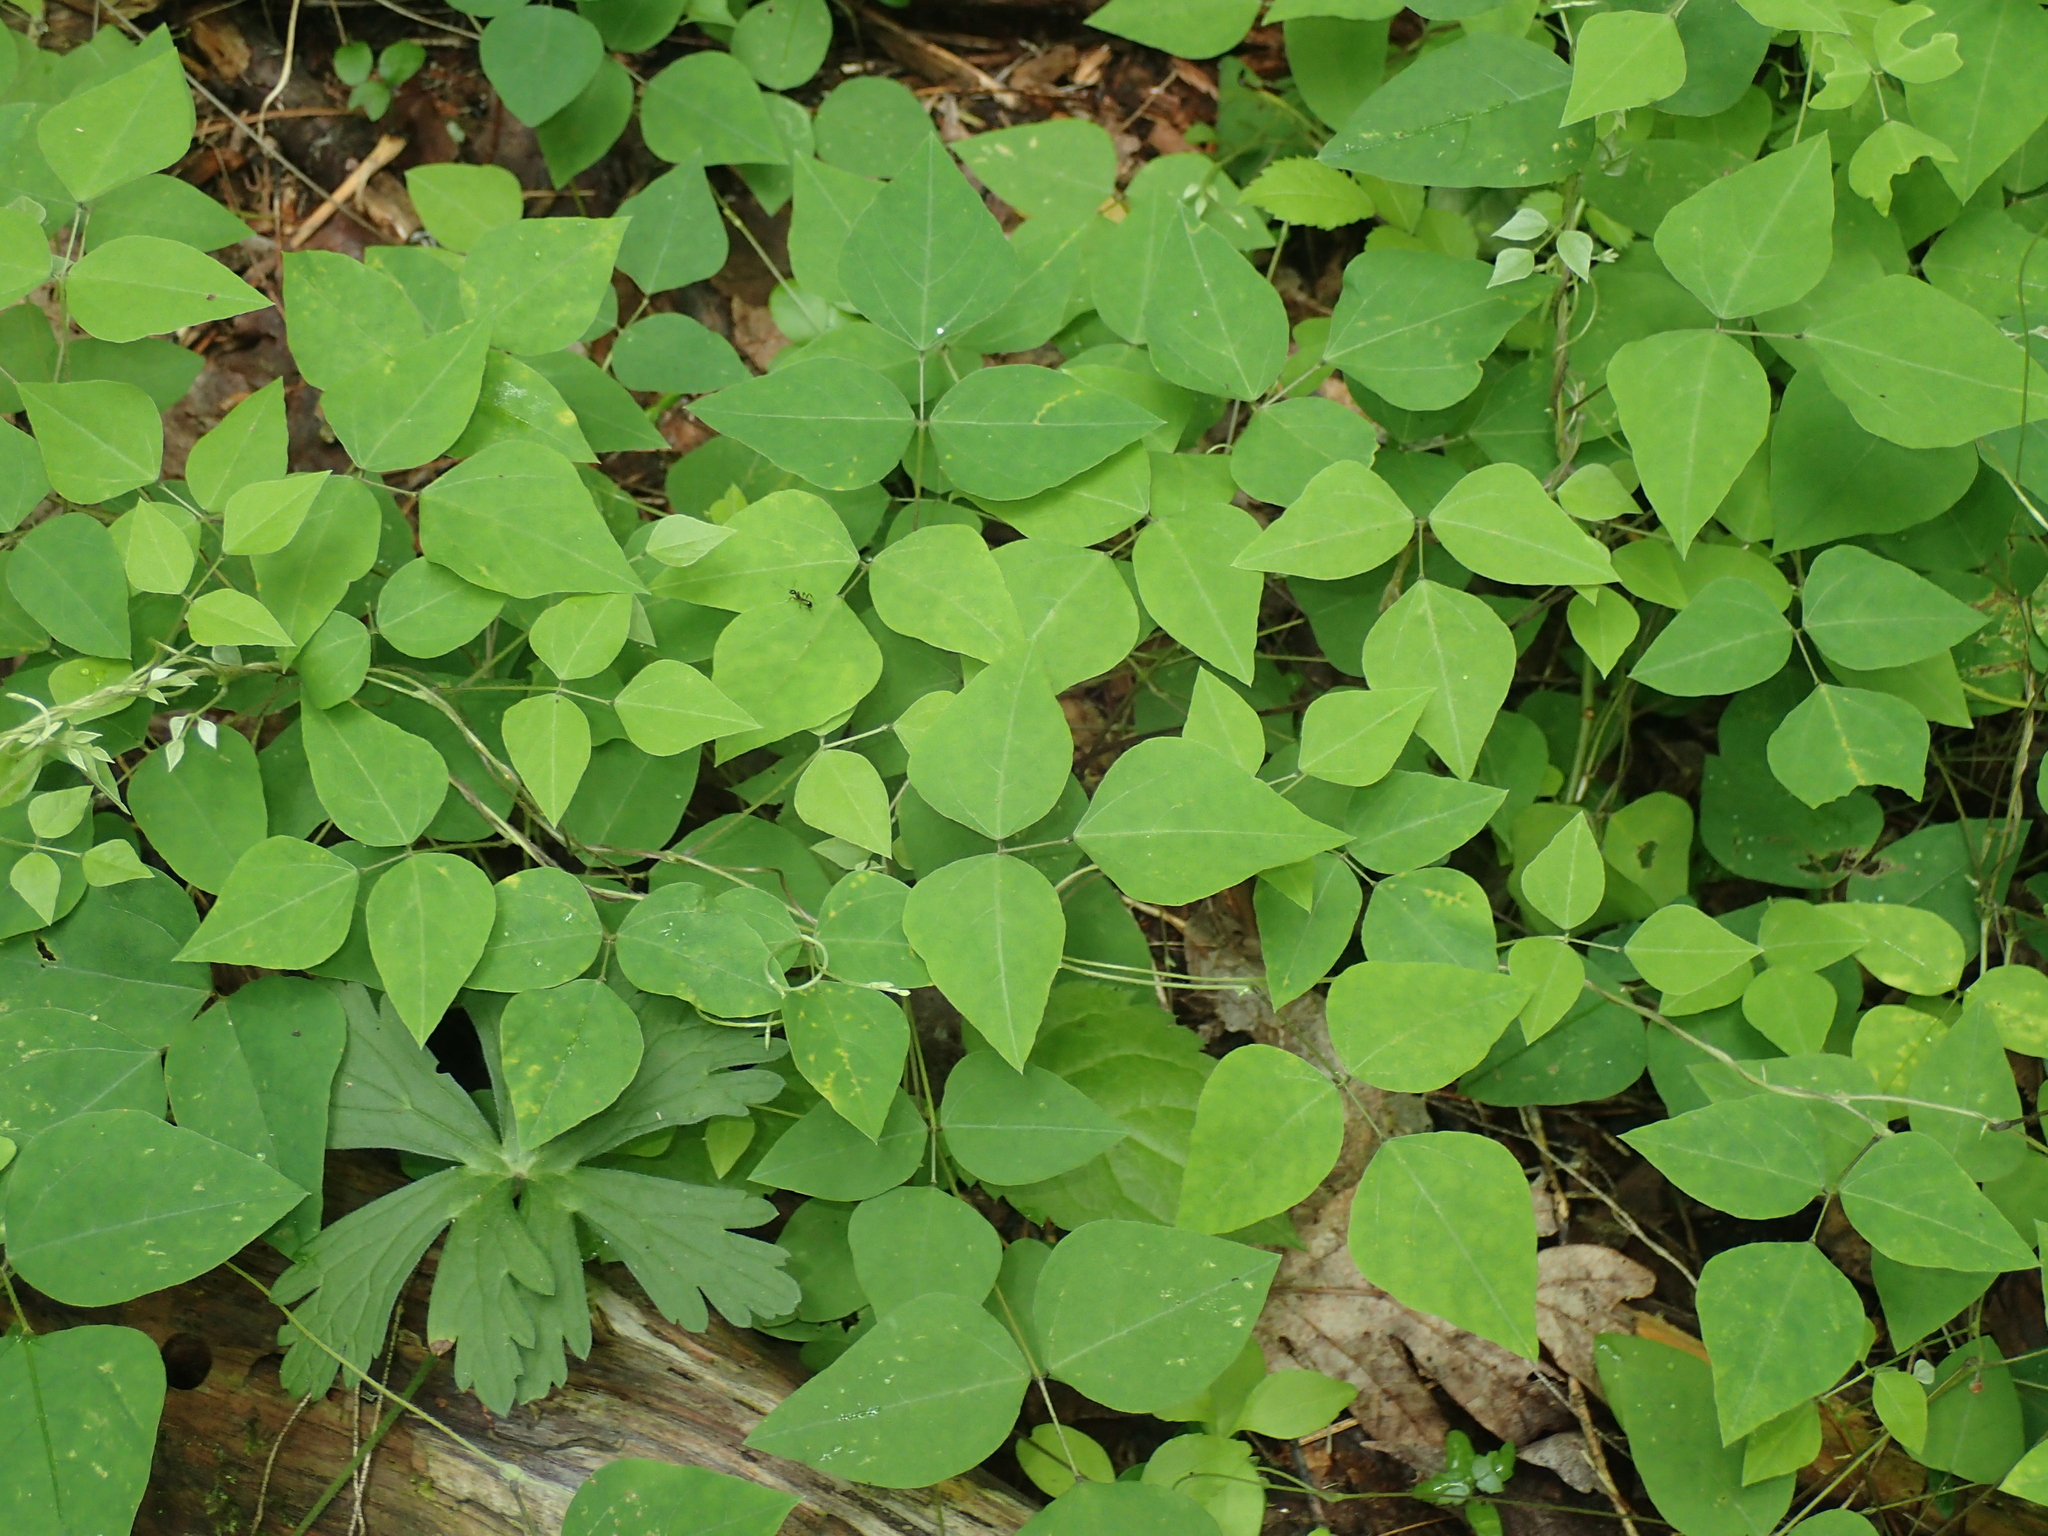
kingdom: Plantae
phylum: Tracheophyta
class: Magnoliopsida
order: Fabales
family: Fabaceae
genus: Amphicarpaea
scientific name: Amphicarpaea bracteata
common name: American hog peanut
